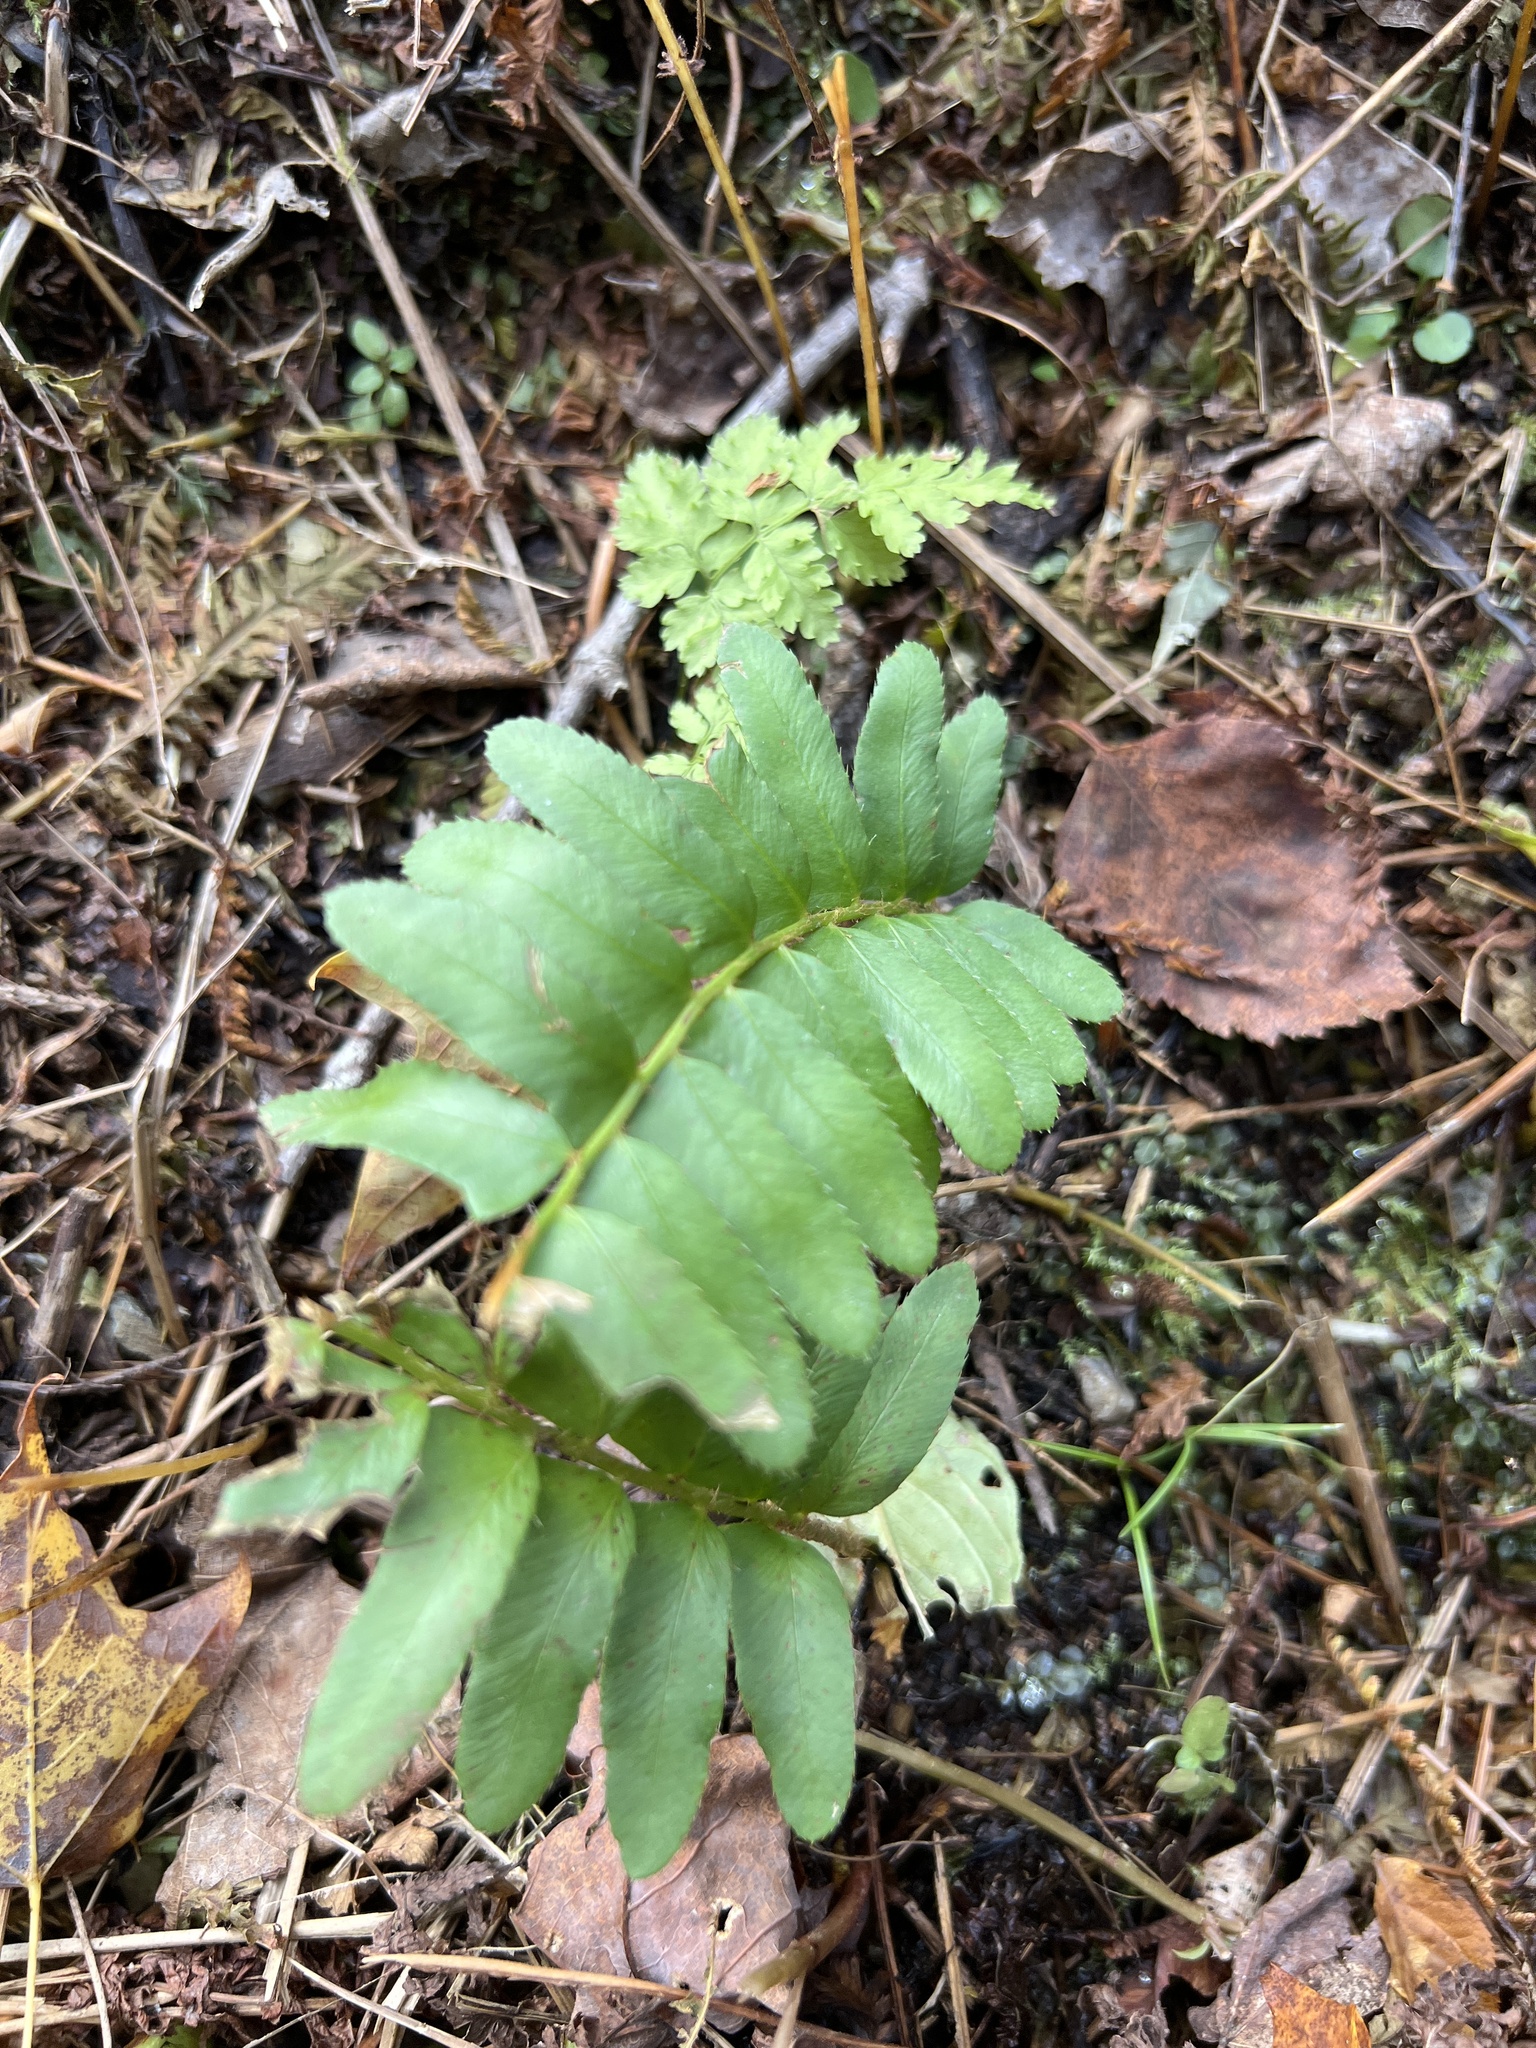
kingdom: Plantae
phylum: Tracheophyta
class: Polypodiopsida
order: Polypodiales
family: Dryopteridaceae
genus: Polystichum
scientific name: Polystichum acrostichoides
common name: Christmas fern
